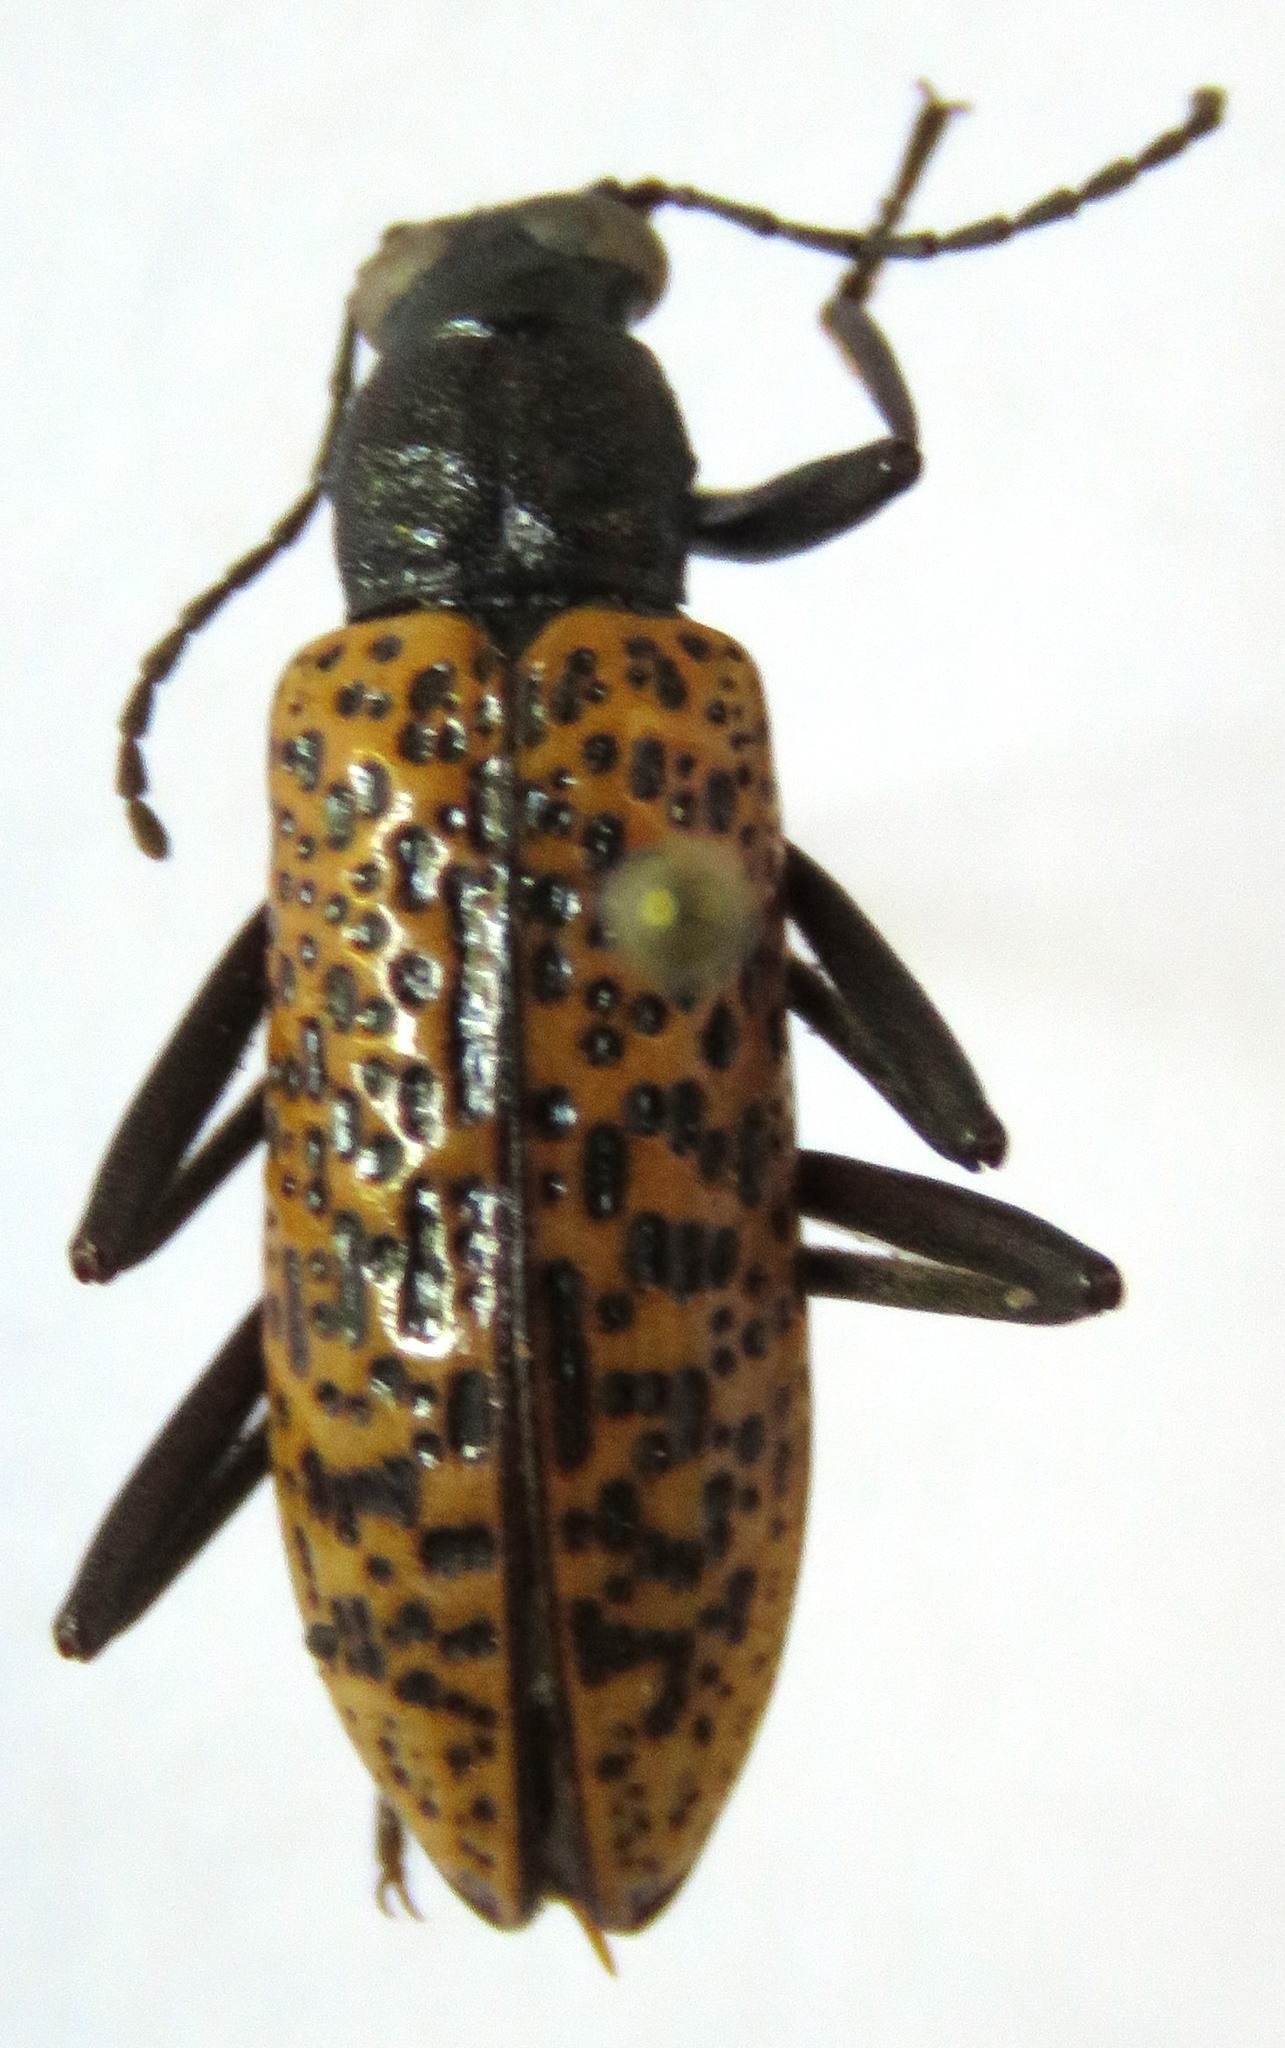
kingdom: Animalia
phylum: Arthropoda
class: Insecta
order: Coleoptera
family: Tenebrionidae
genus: Strongylium
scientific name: Strongylium
